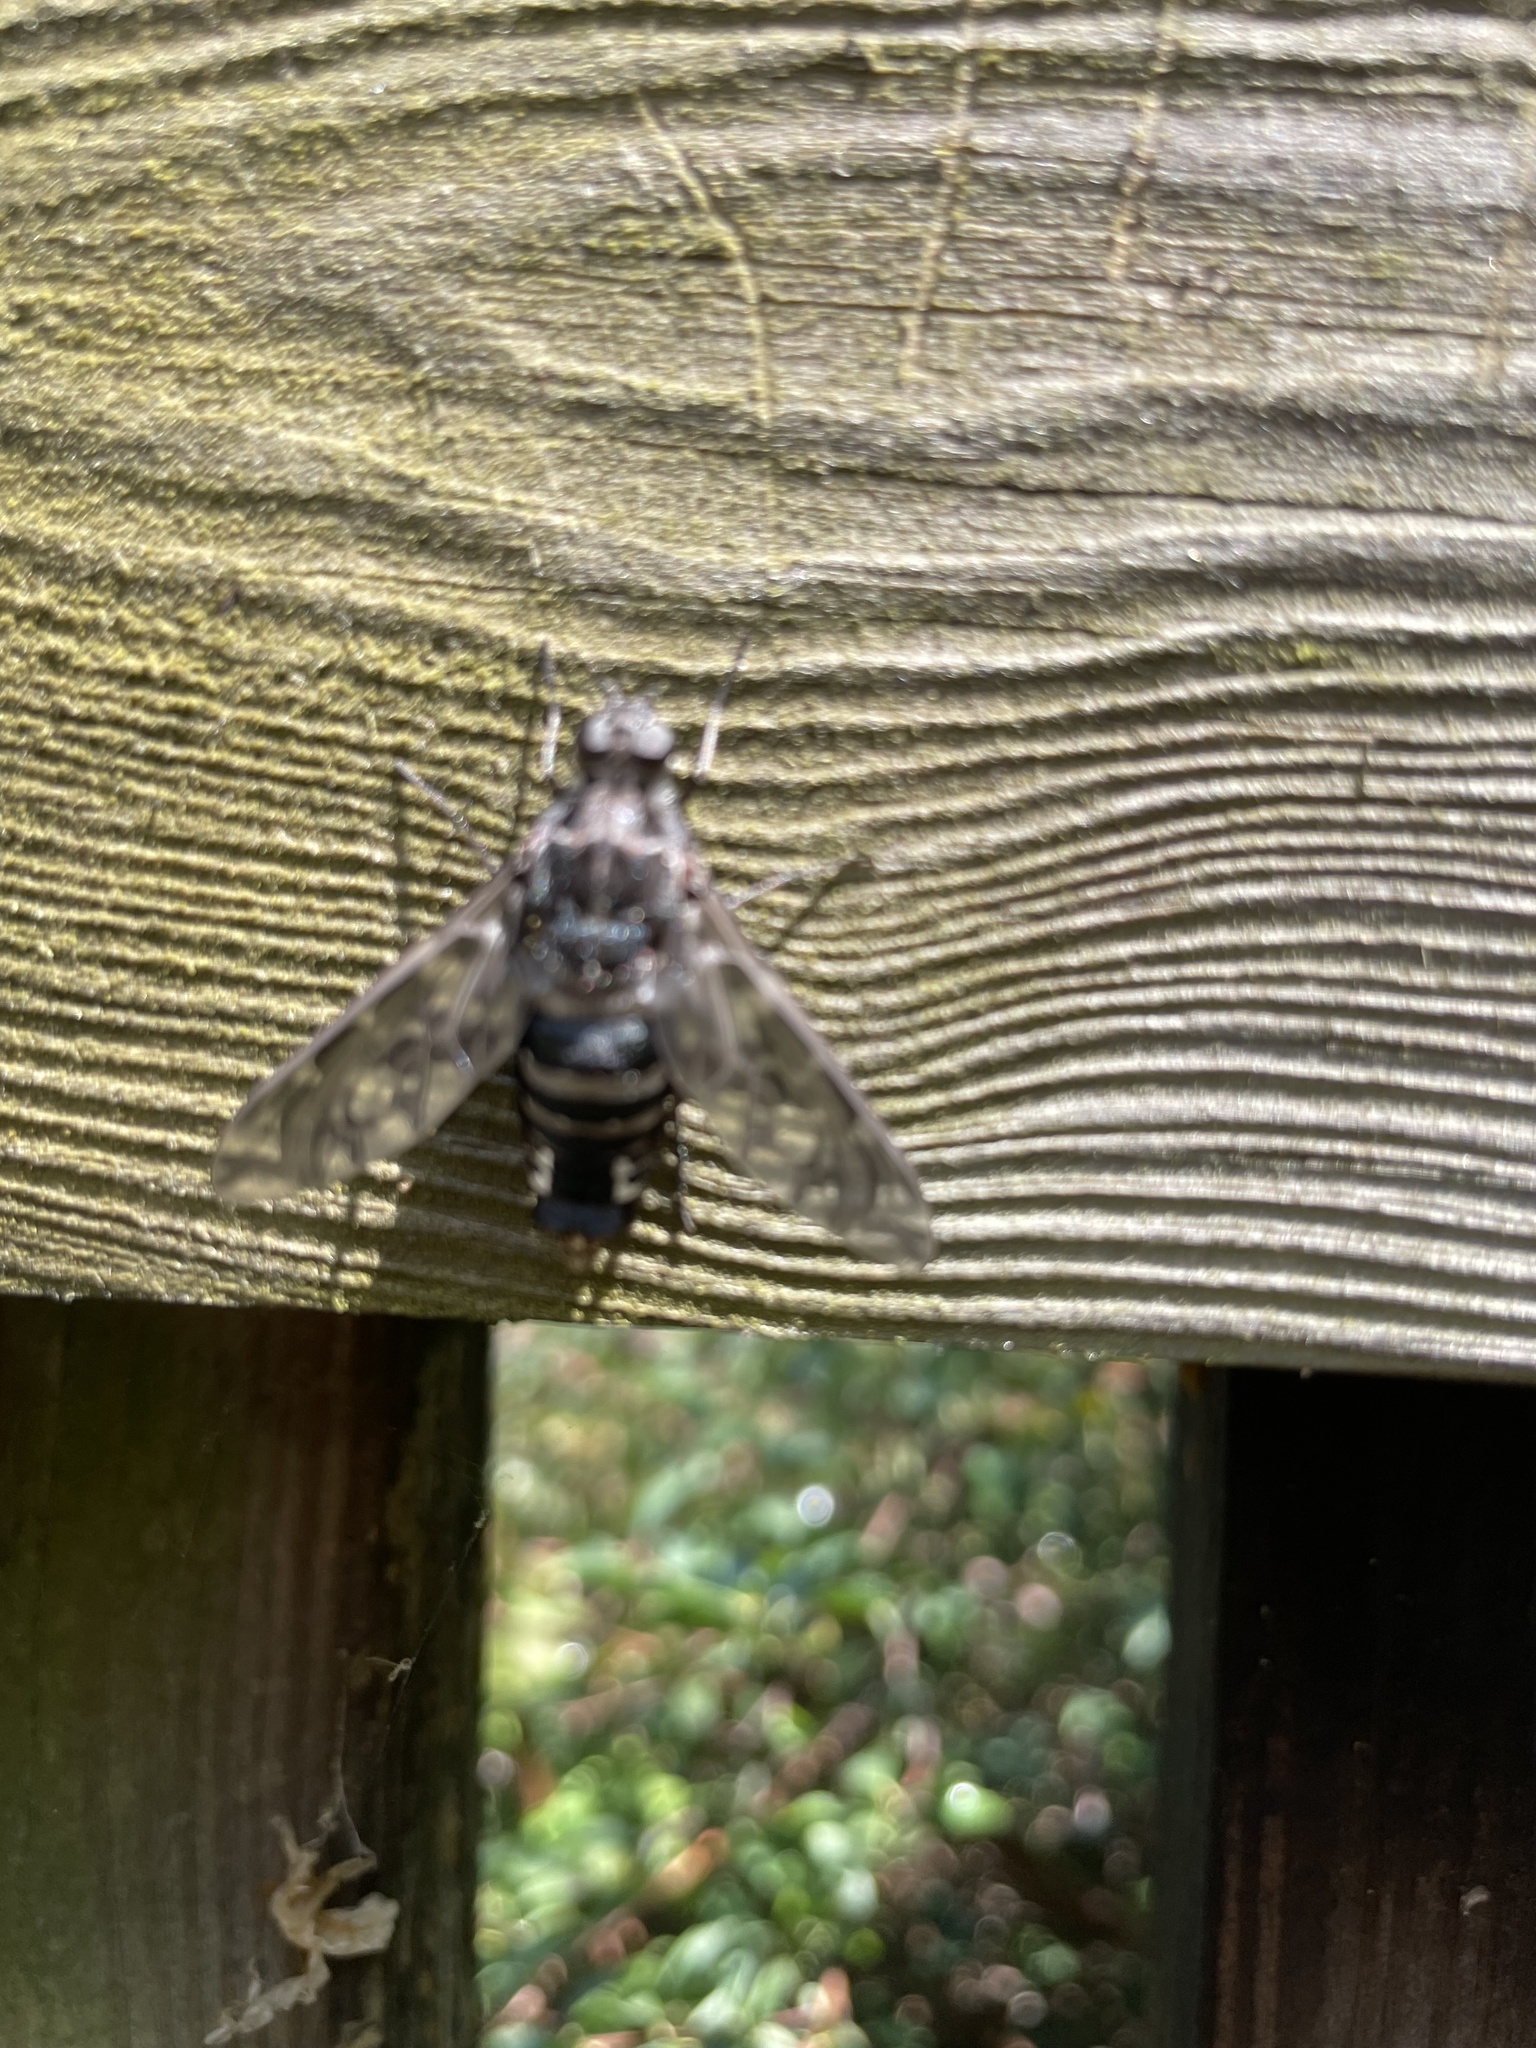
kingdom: Animalia
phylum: Arthropoda
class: Insecta
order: Diptera
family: Bombyliidae
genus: Xenox
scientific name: Xenox tigrinus
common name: Tiger bee fly
